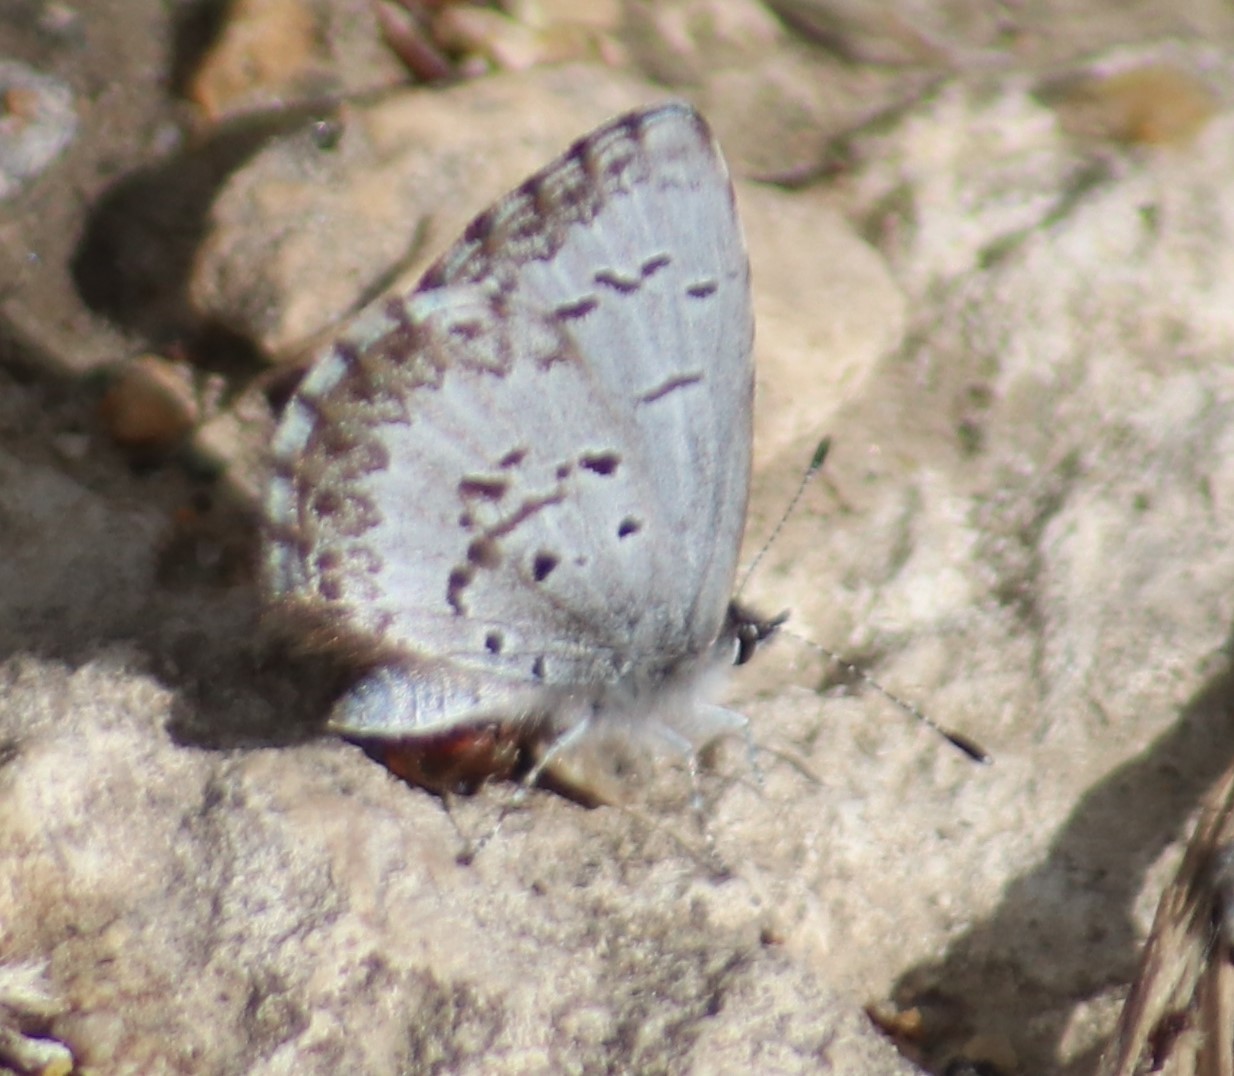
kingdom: Animalia
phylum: Arthropoda
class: Insecta
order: Lepidoptera
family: Lycaenidae
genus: Celastrina
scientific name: Celastrina lucia
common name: Lucia azure
